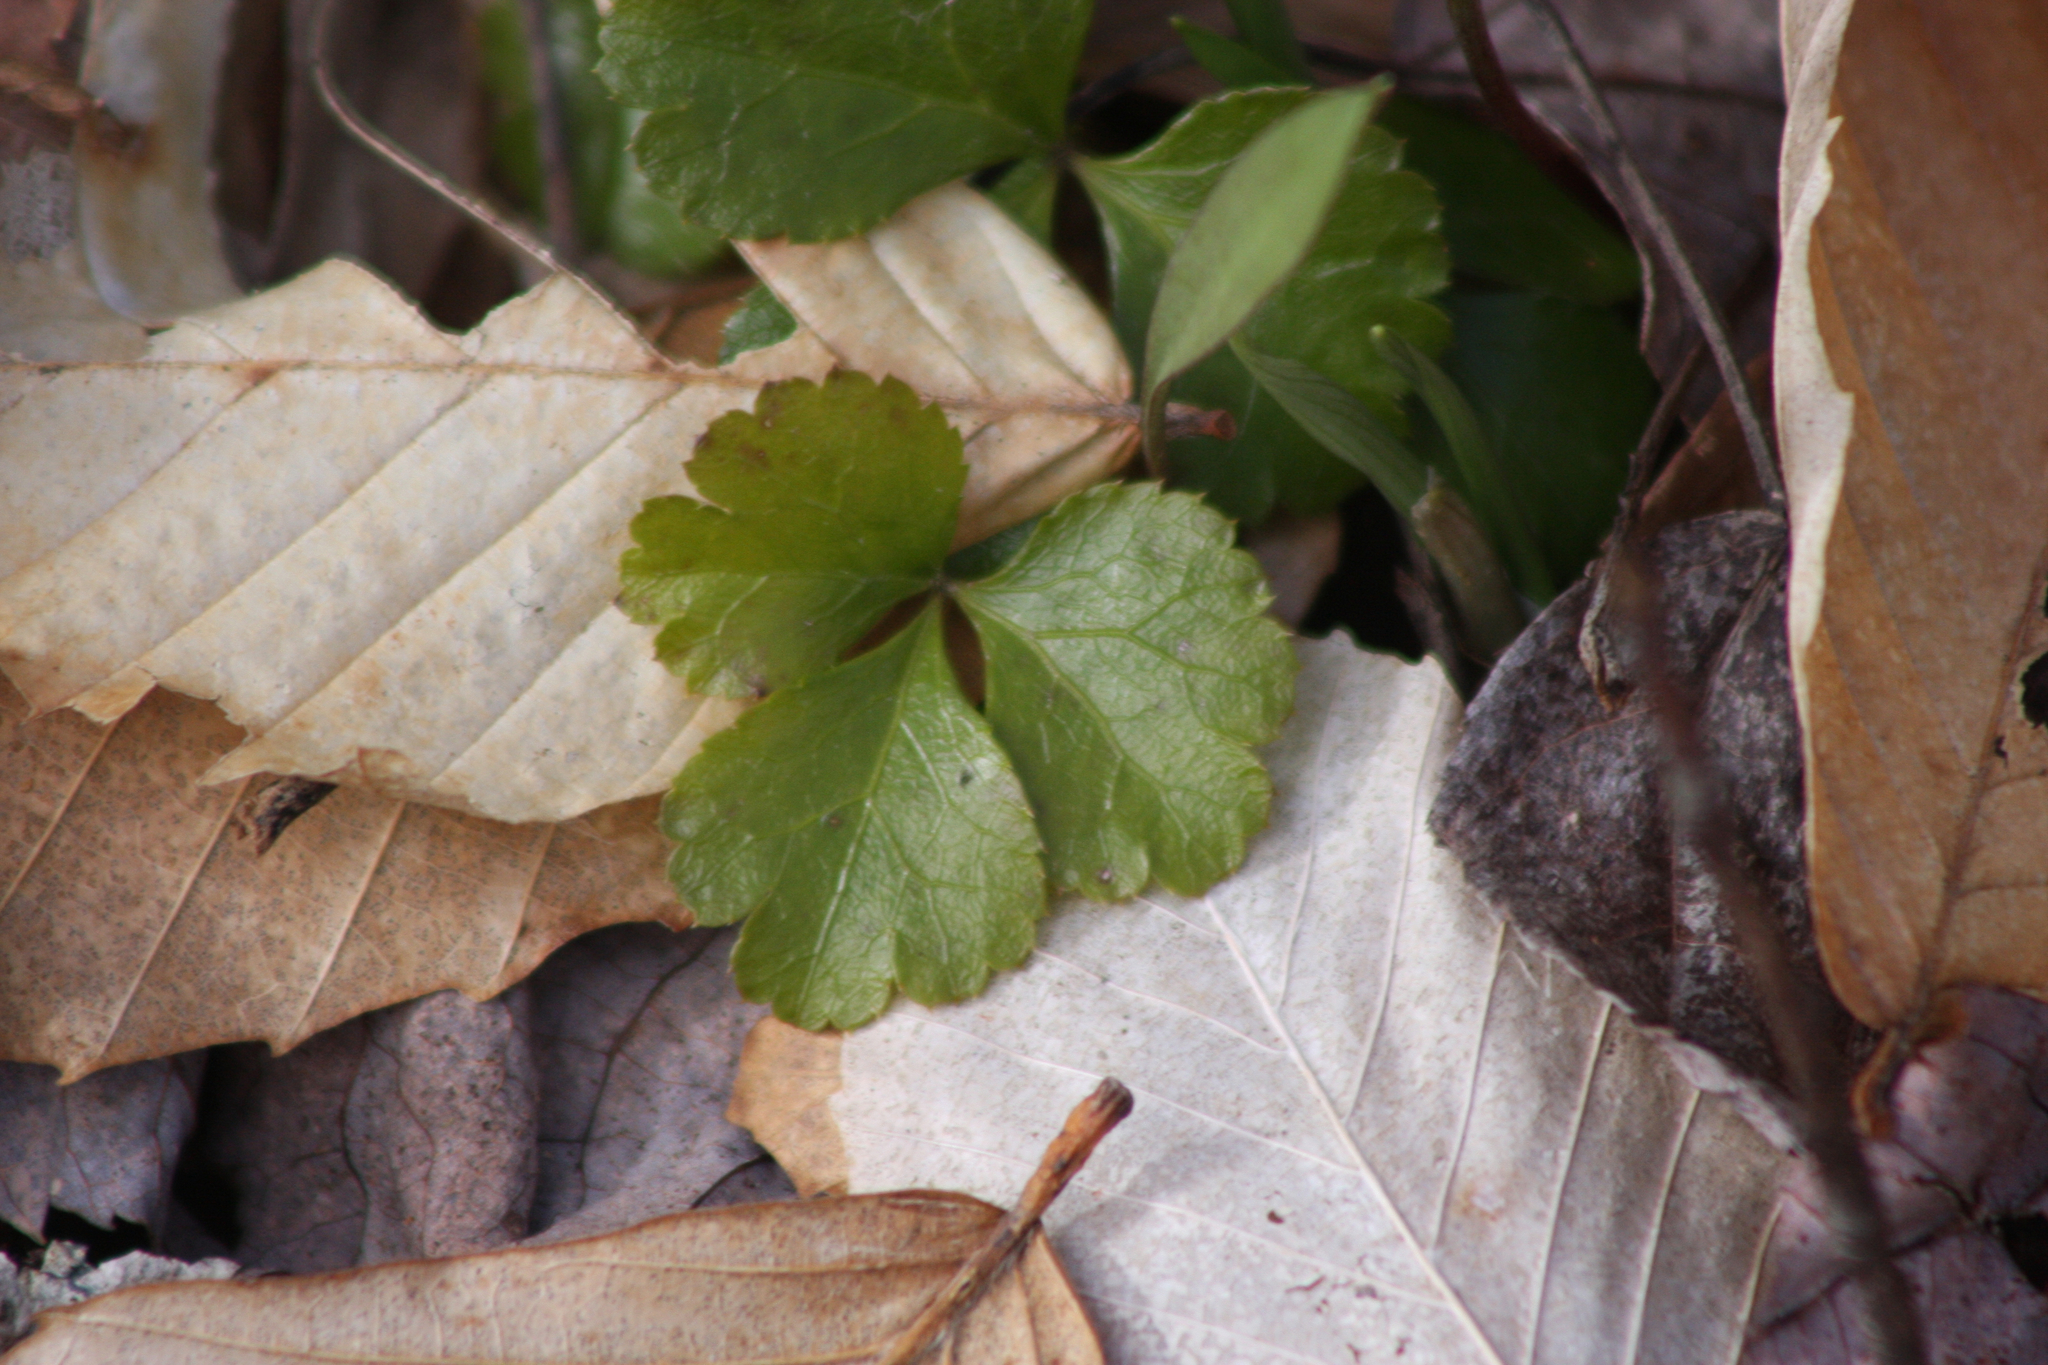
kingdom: Plantae
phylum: Tracheophyta
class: Magnoliopsida
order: Ranunculales
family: Ranunculaceae
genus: Coptis
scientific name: Coptis trifolia
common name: Canker-root
